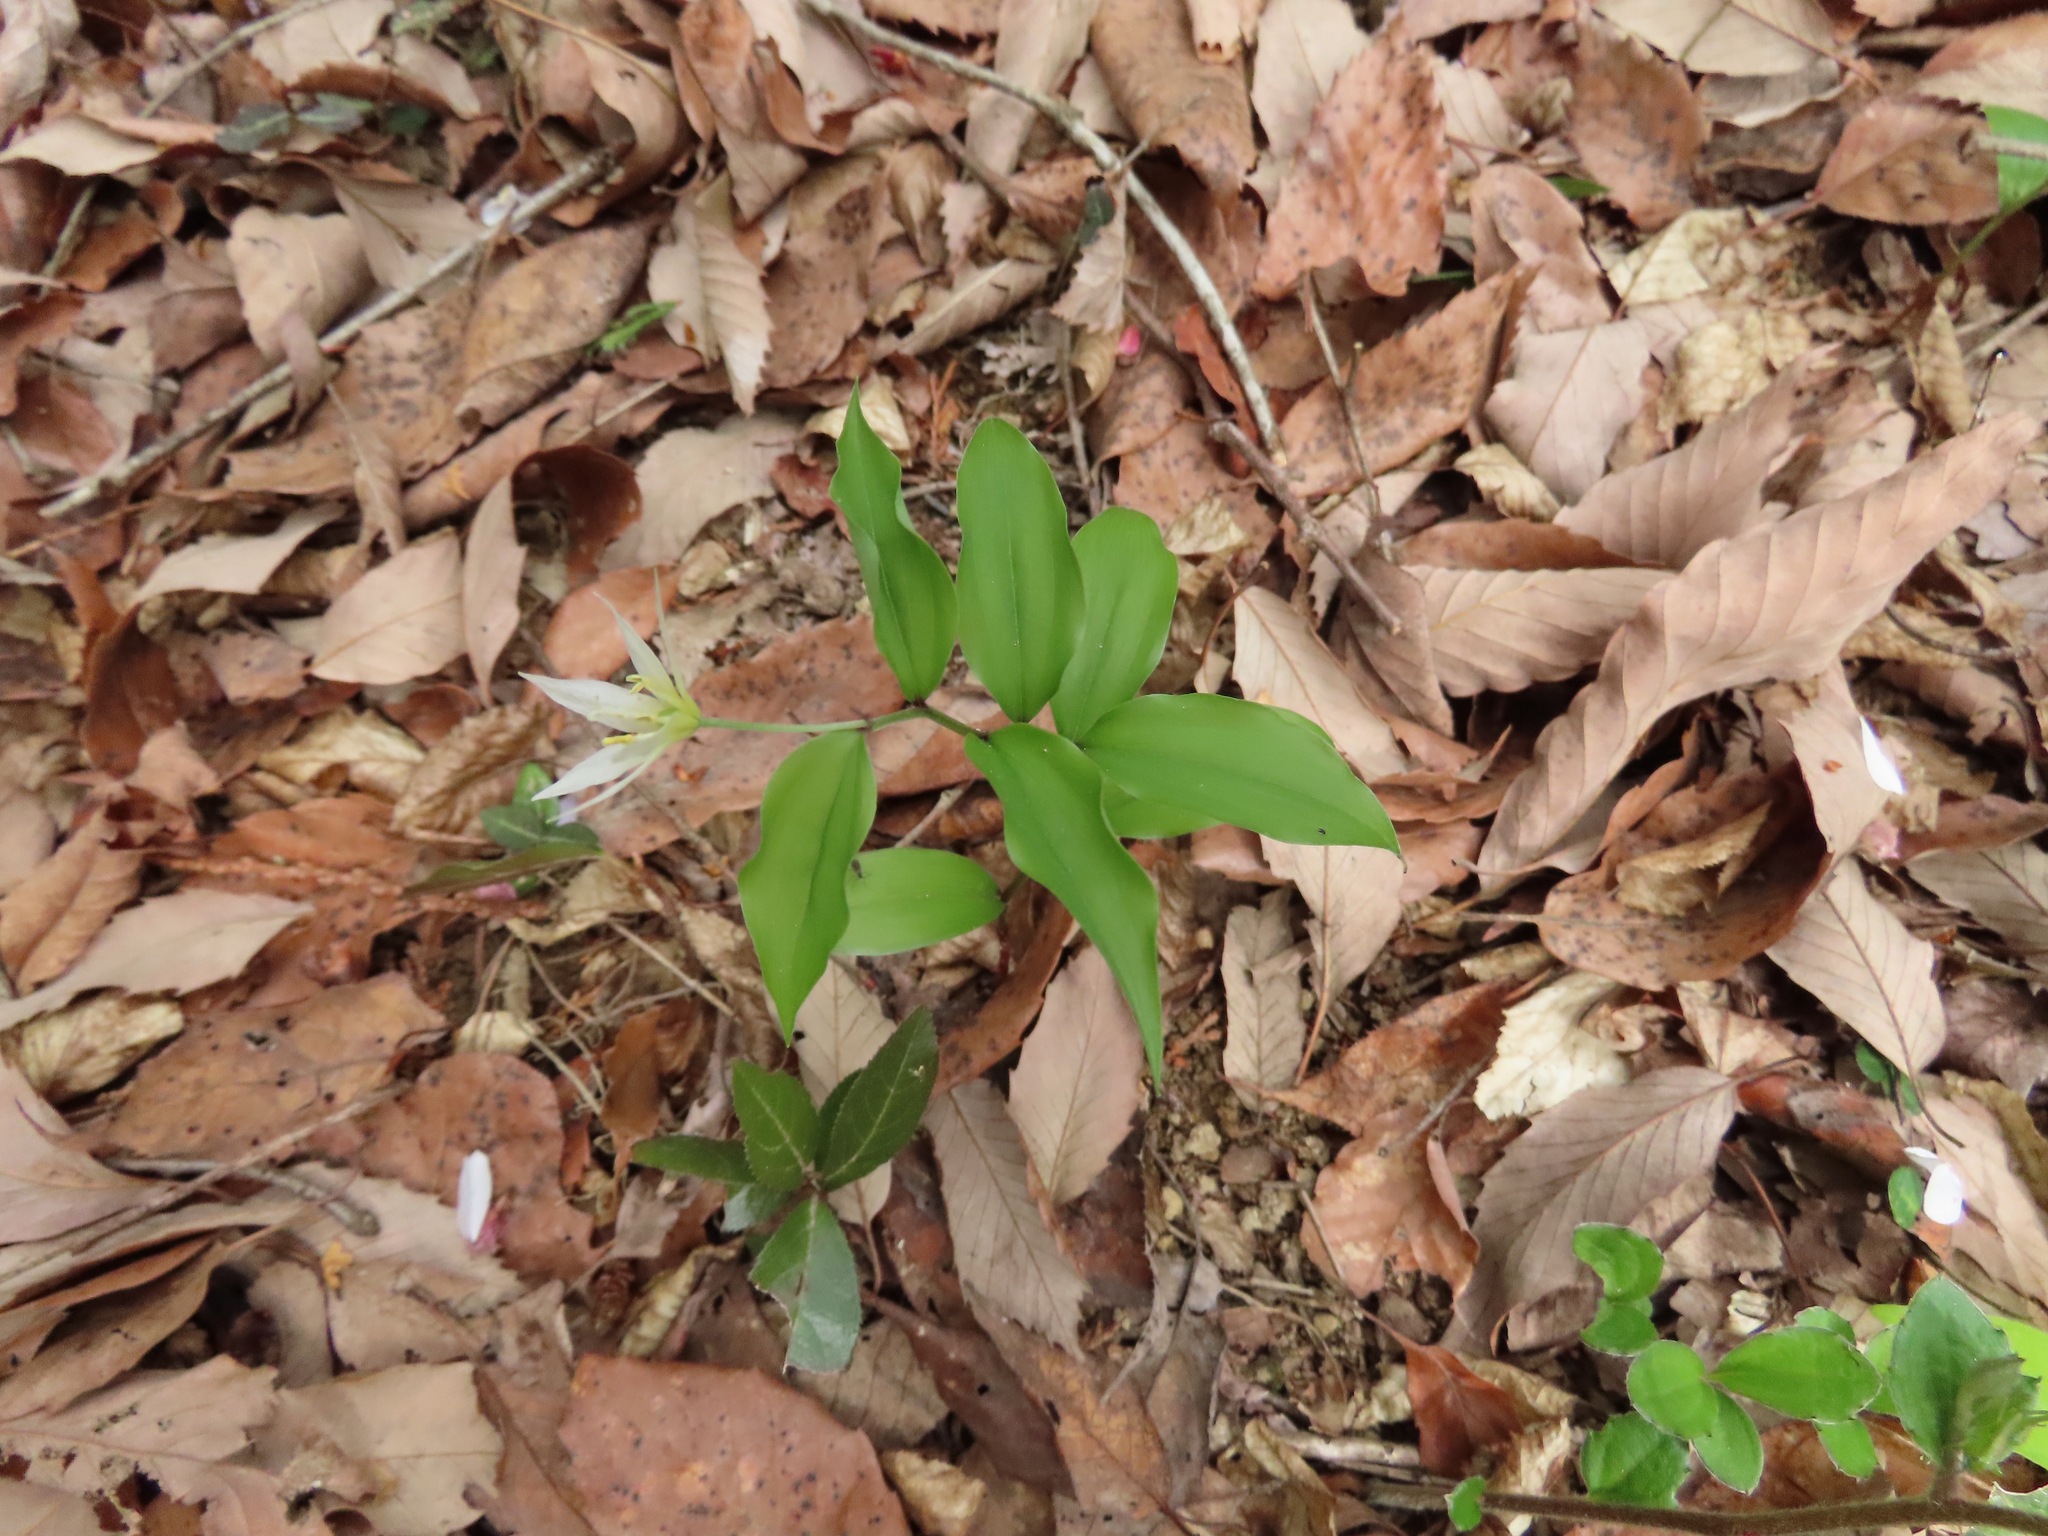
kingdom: Plantae
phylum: Tracheophyta
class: Liliopsida
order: Liliales
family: Colchicaceae
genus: Disporum
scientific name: Disporum smilacinum
